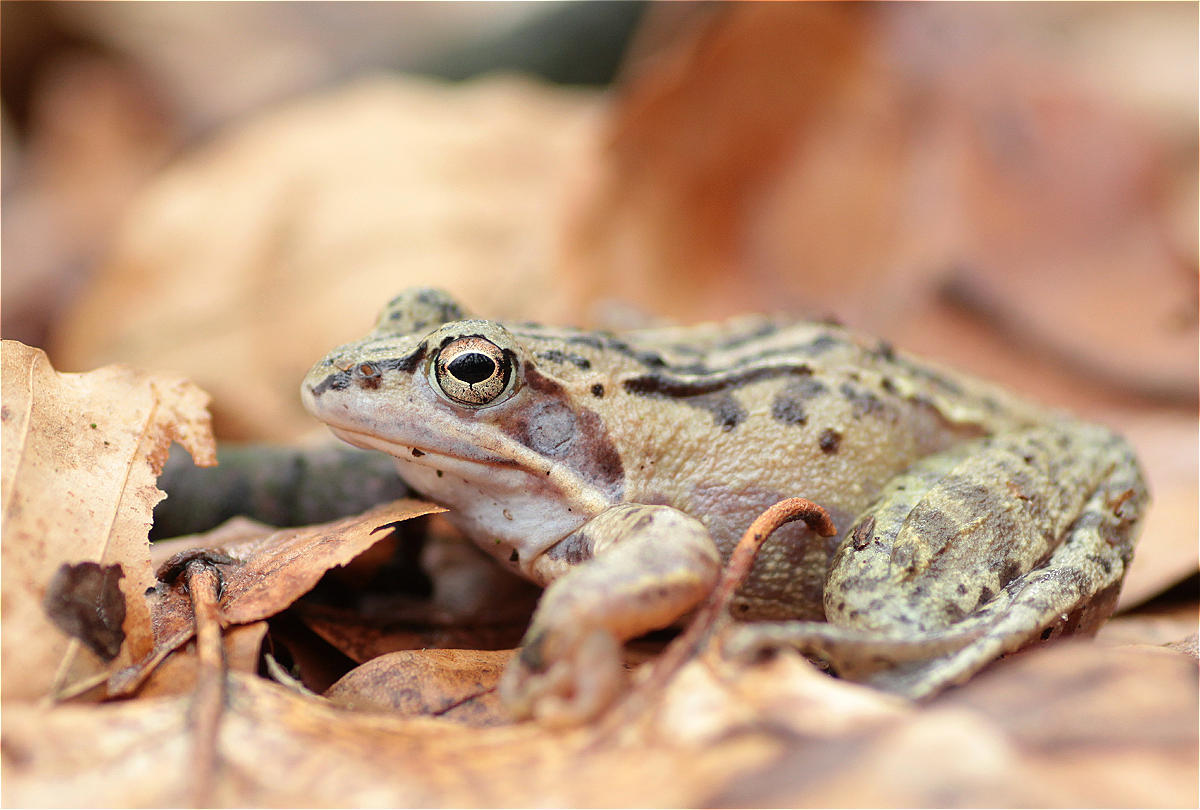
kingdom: Animalia
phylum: Chordata
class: Amphibia
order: Anura
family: Ranidae
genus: Rana
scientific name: Rana arvalis
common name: Moor frog
